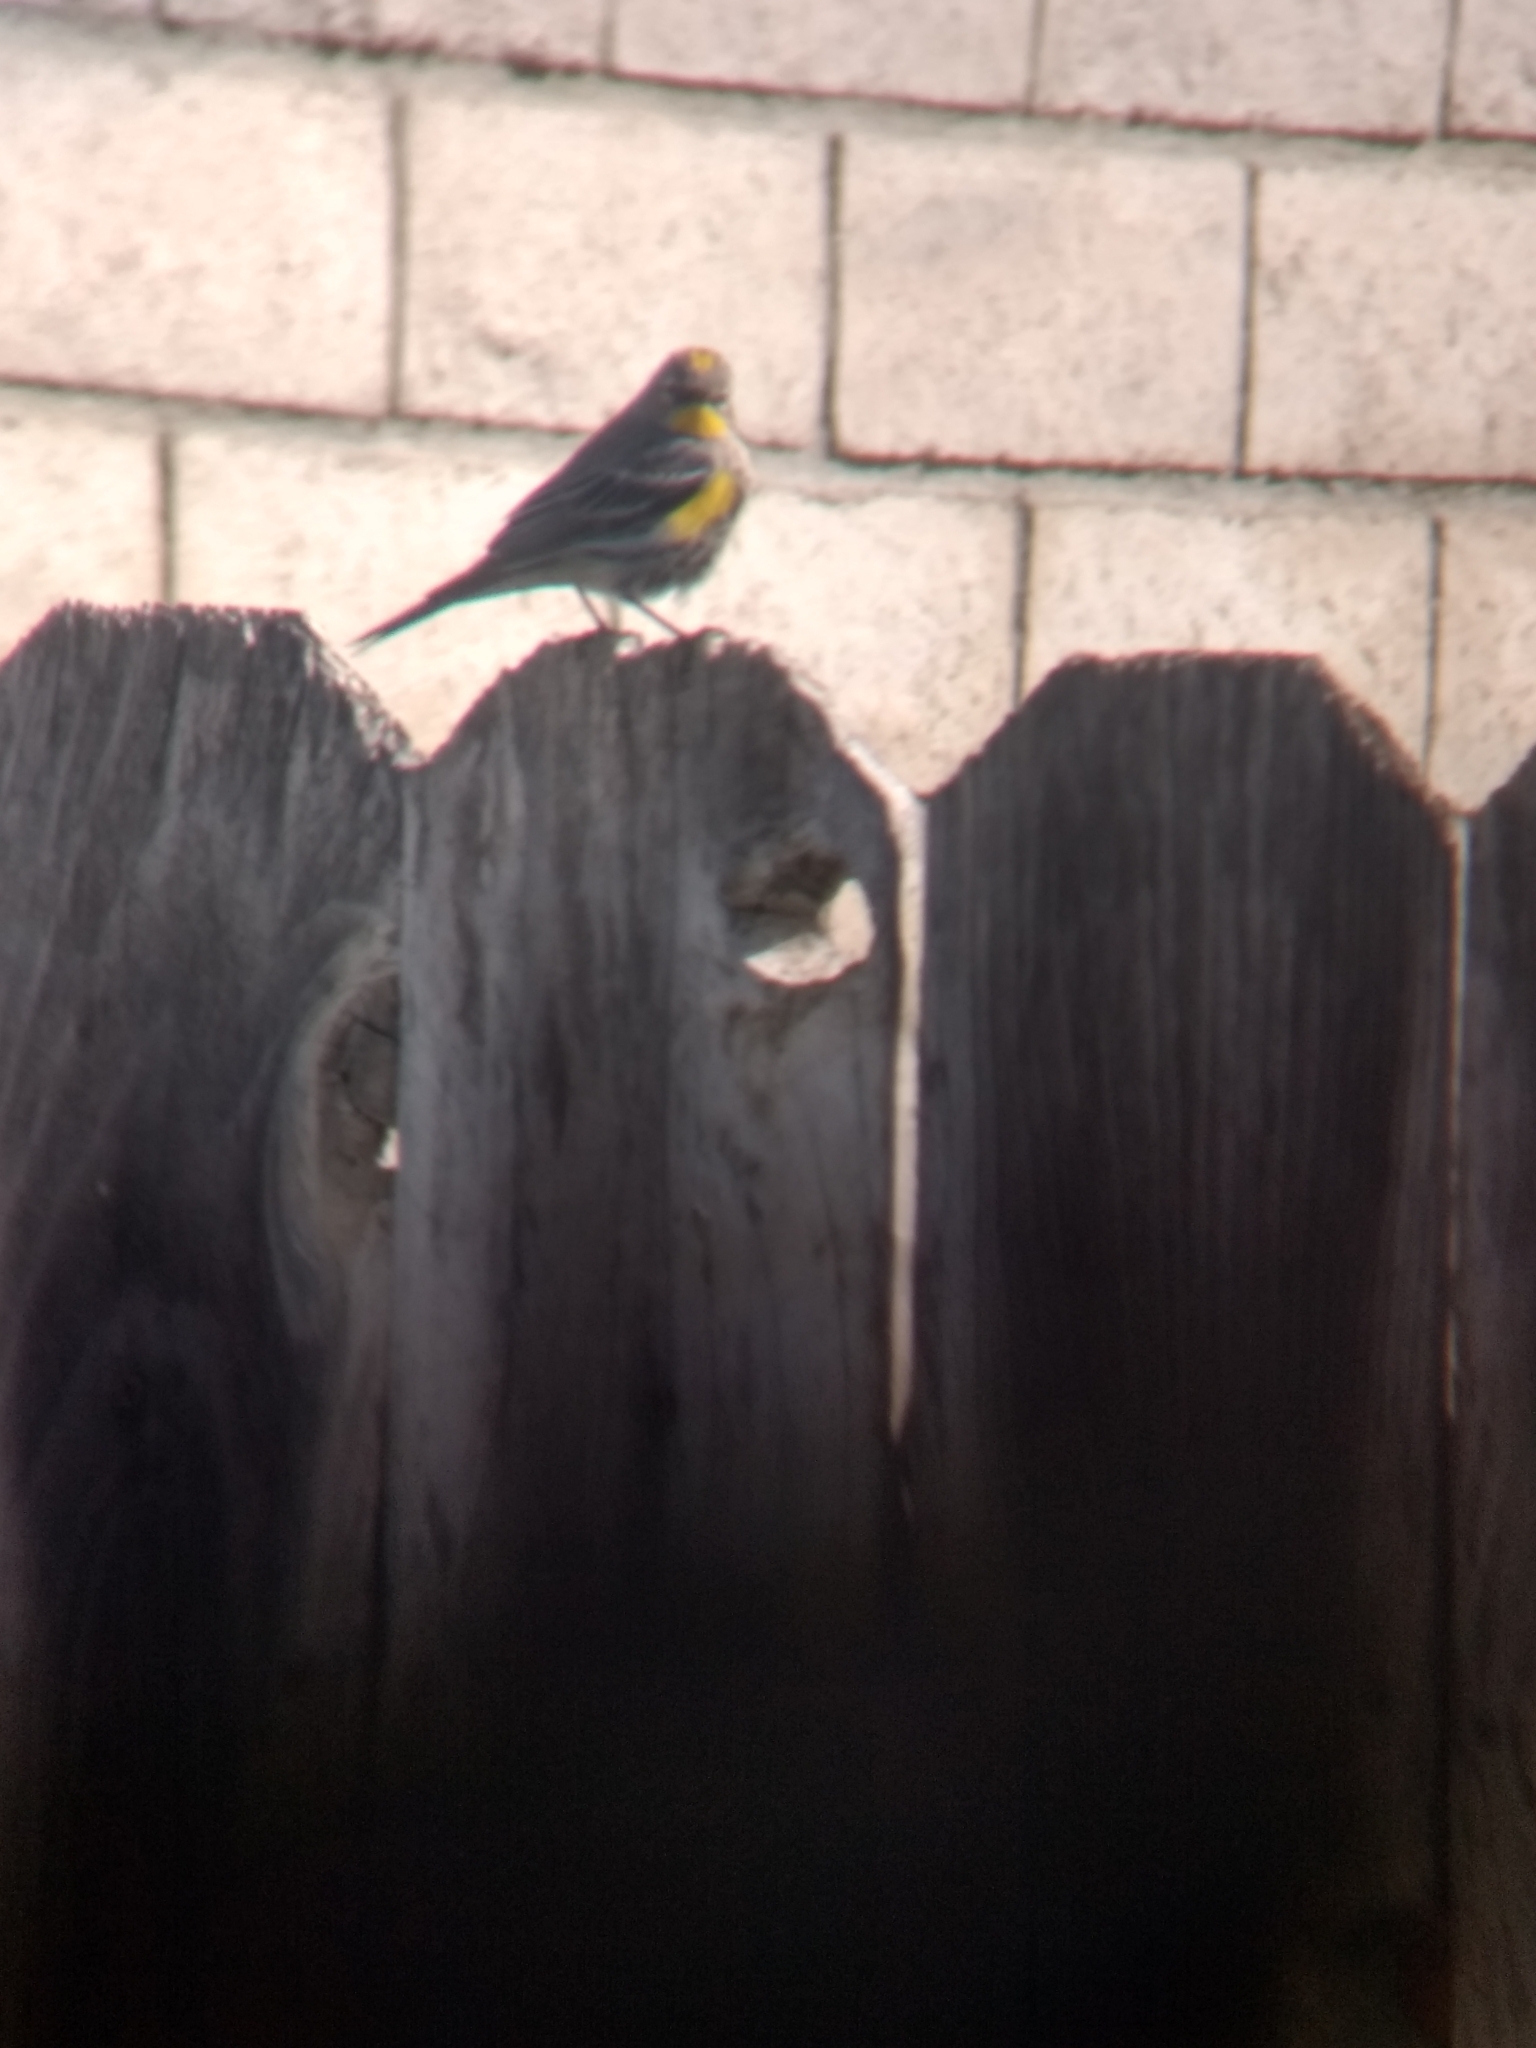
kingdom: Animalia
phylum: Chordata
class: Aves
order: Passeriformes
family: Parulidae
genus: Setophaga
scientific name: Setophaga coronata
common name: Myrtle warbler
